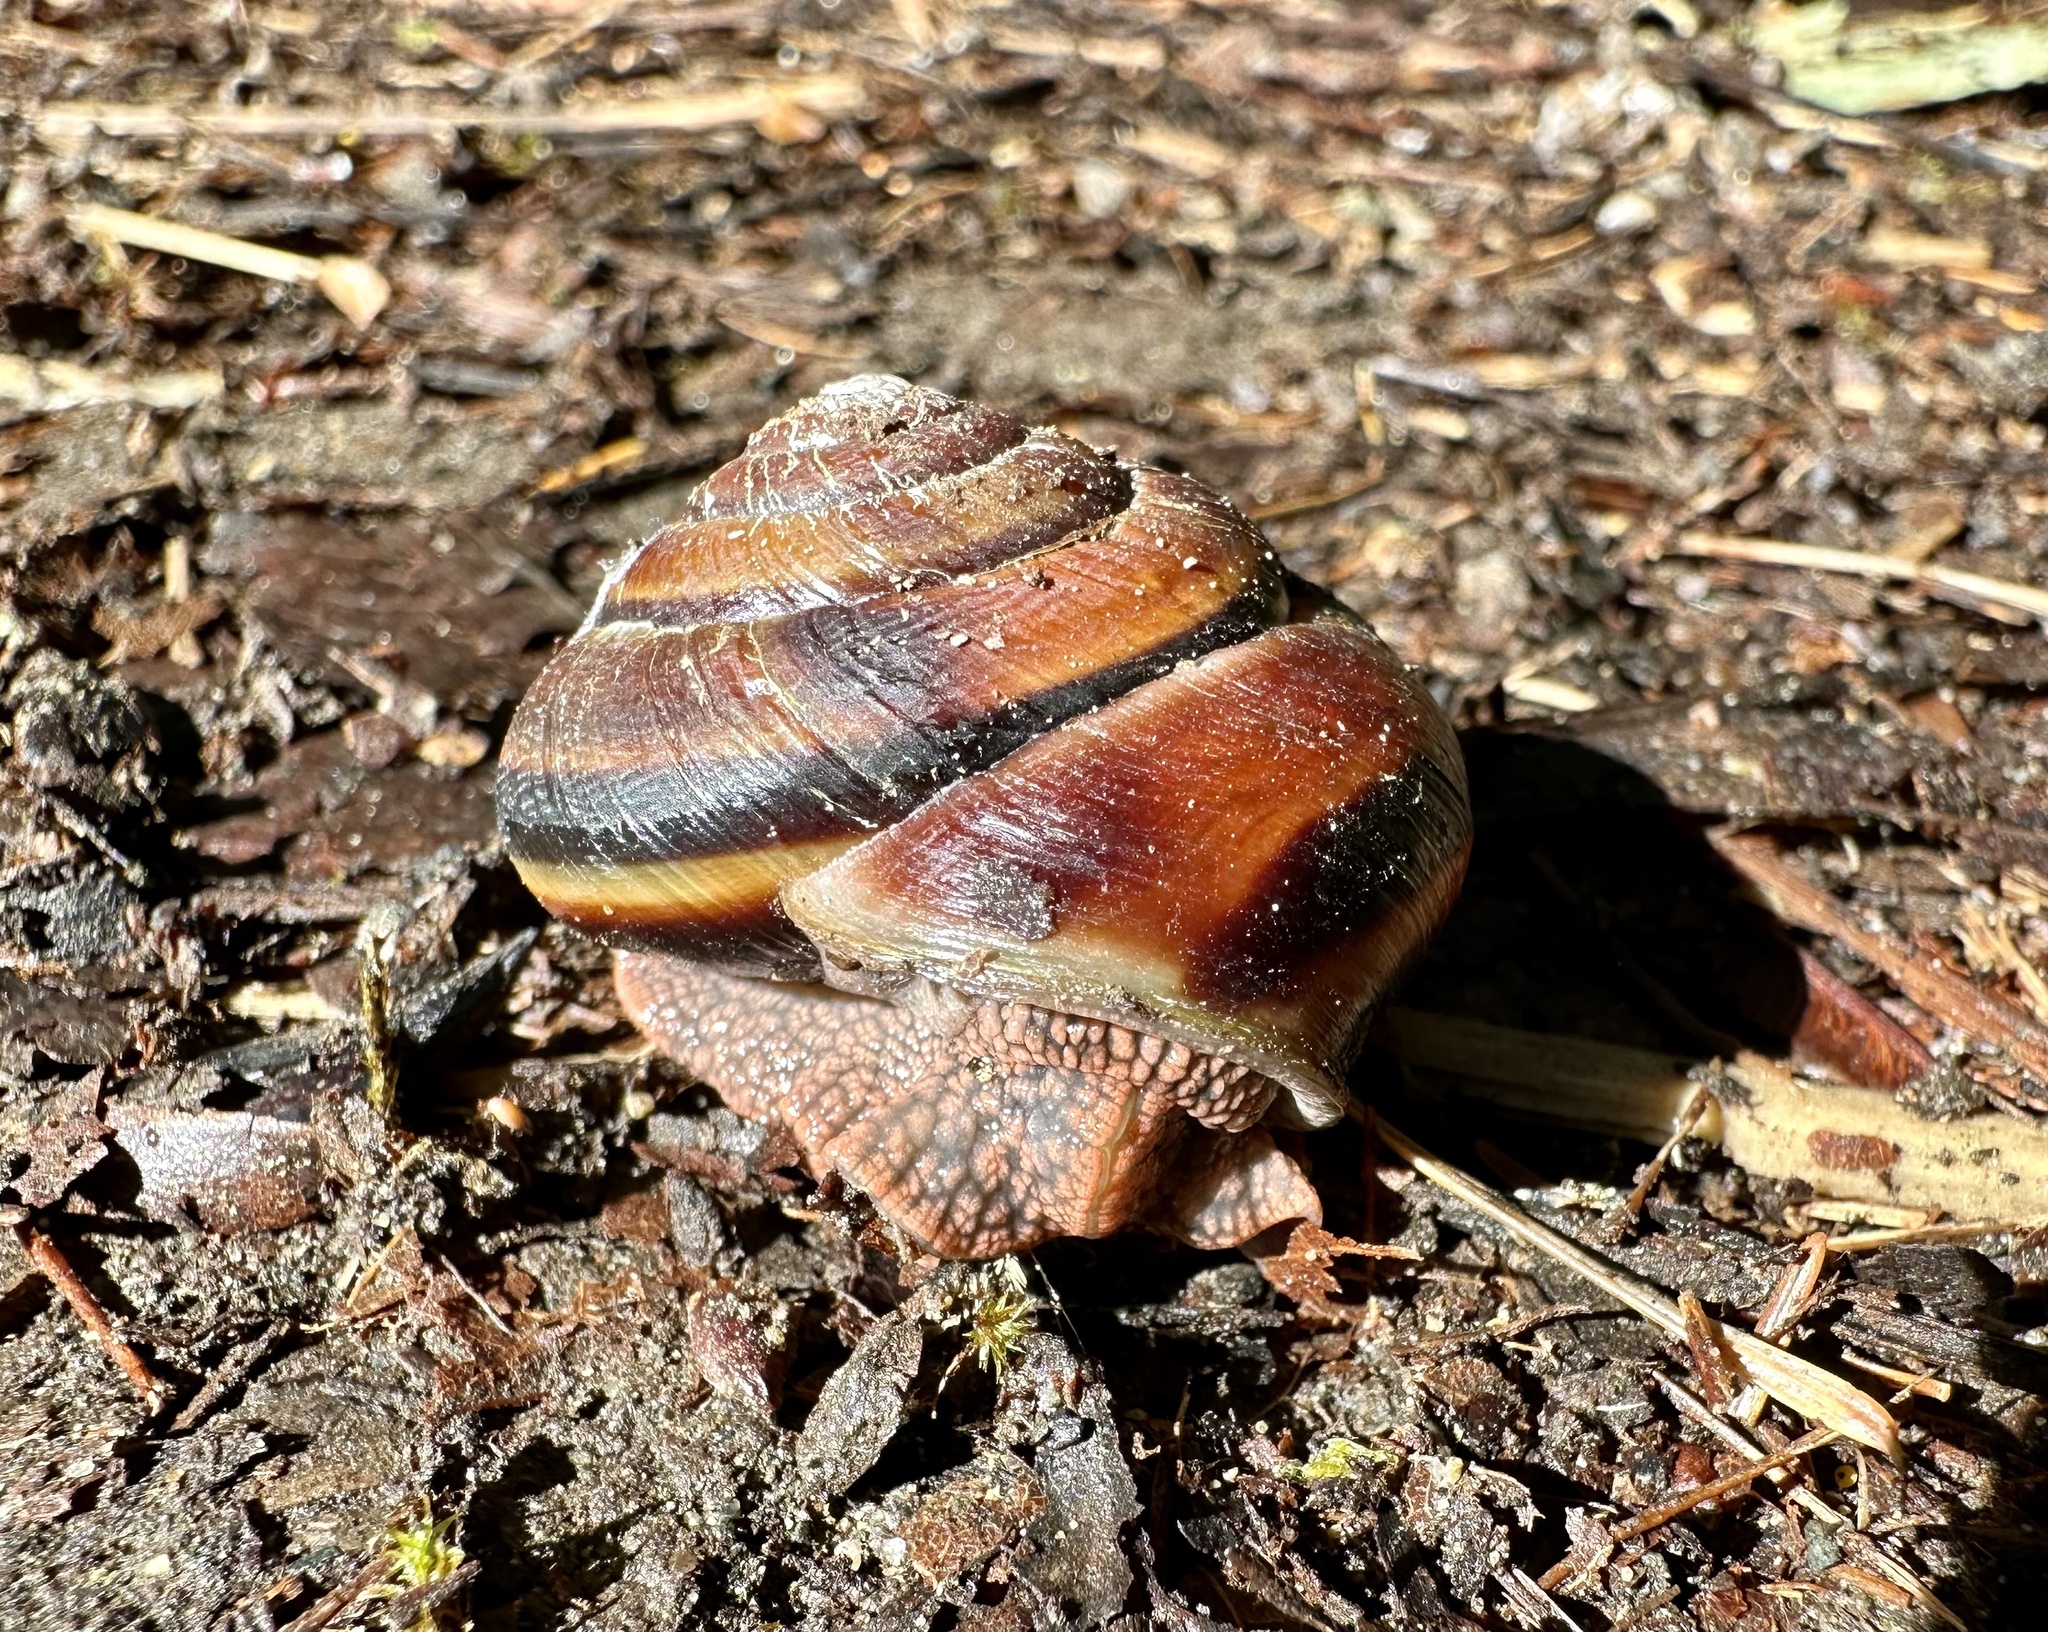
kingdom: Animalia
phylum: Mollusca
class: Gastropoda
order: Stylommatophora
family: Xanthonychidae
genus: Monadenia
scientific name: Monadenia fidelis
